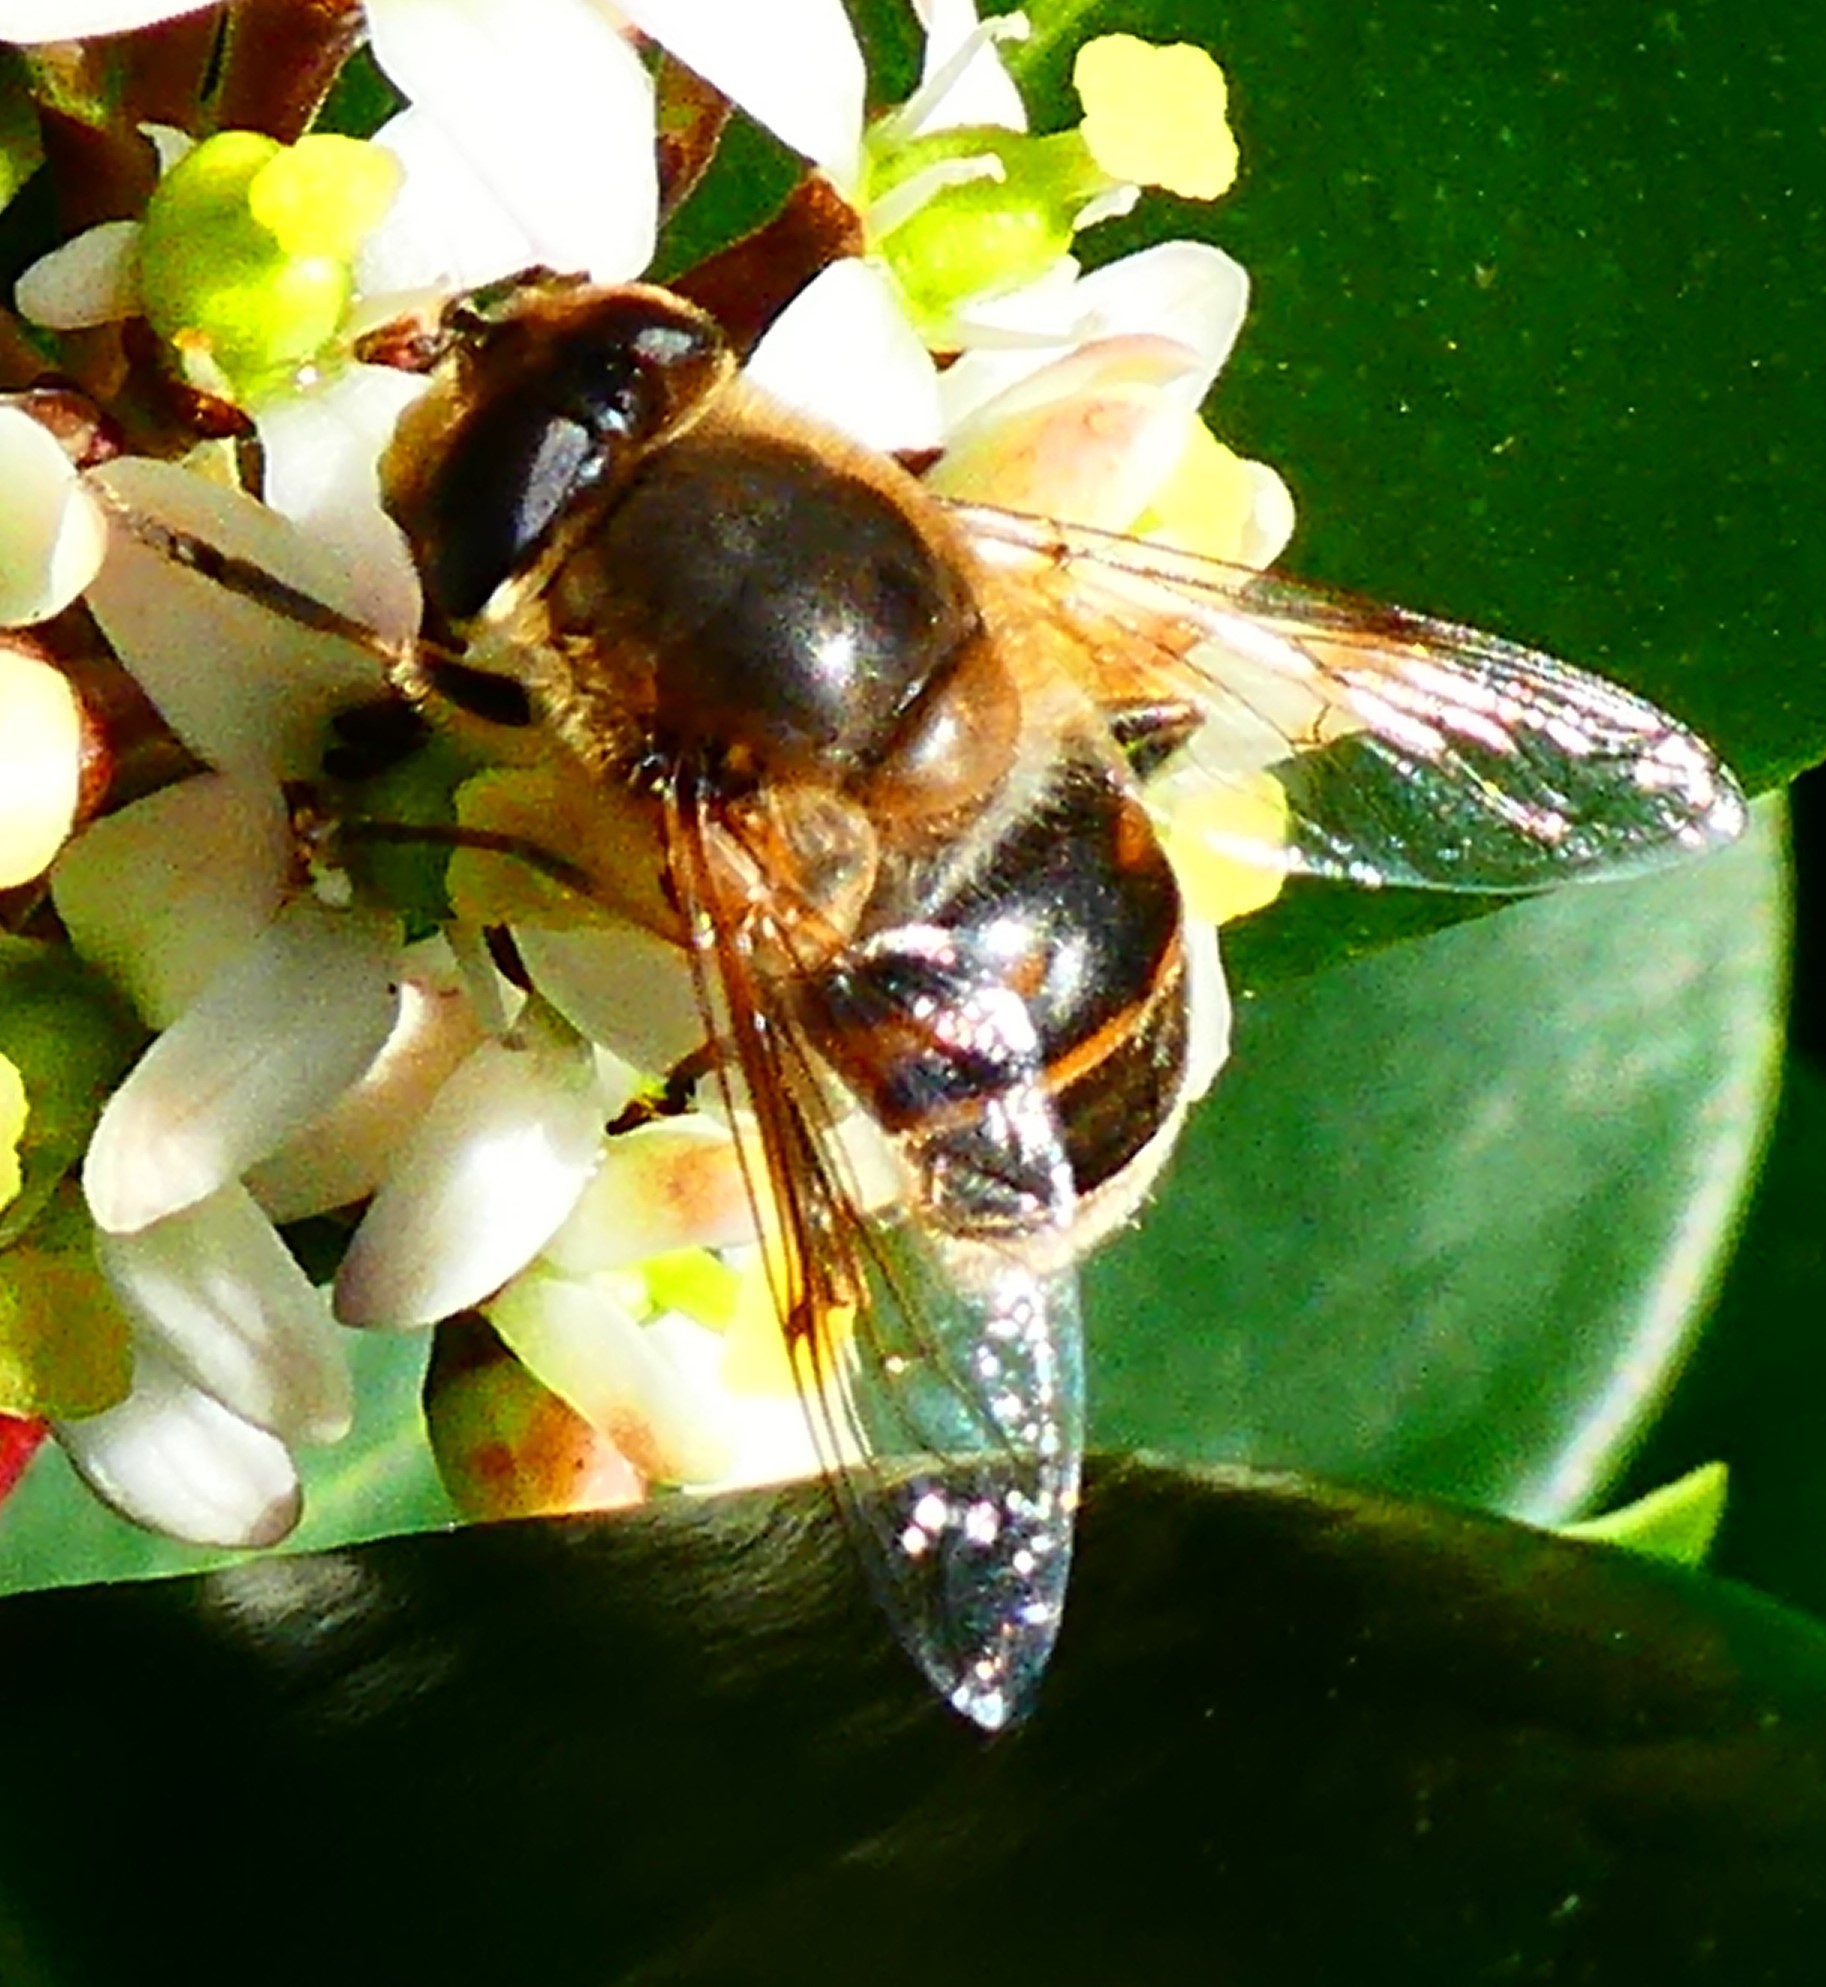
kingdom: Animalia
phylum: Arthropoda
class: Insecta
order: Diptera
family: Syrphidae
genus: Eristalis
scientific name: Eristalis tenax
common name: Drone fly
